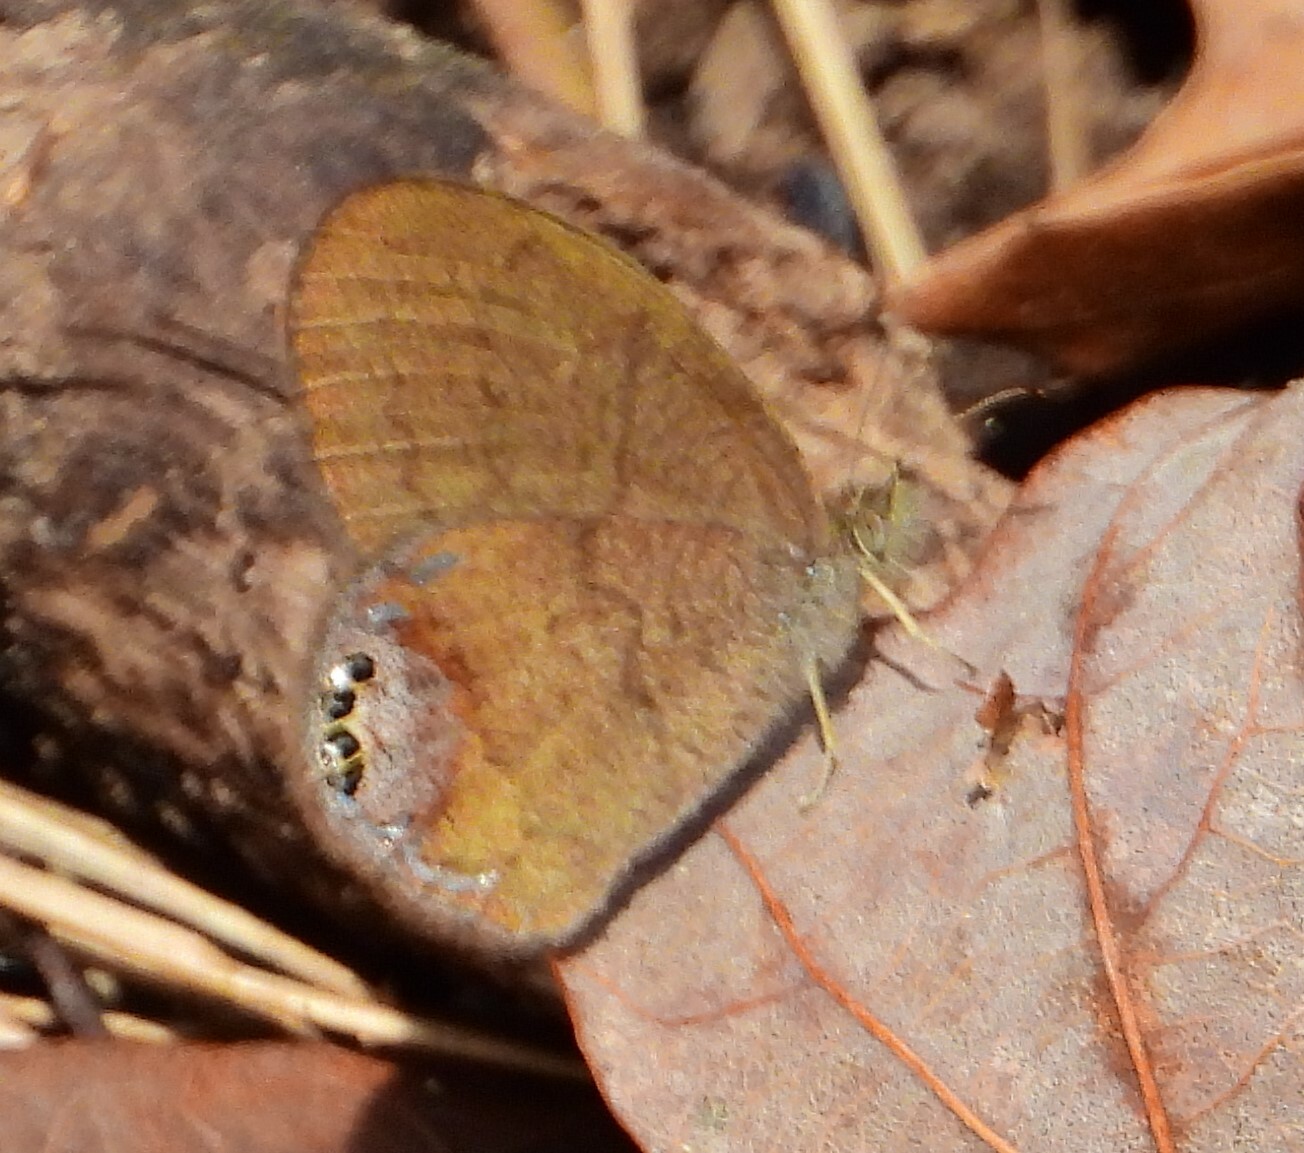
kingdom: Animalia
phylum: Arthropoda
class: Insecta
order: Lepidoptera
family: Nymphalidae
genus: Euptychia
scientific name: Euptychia cornelius
